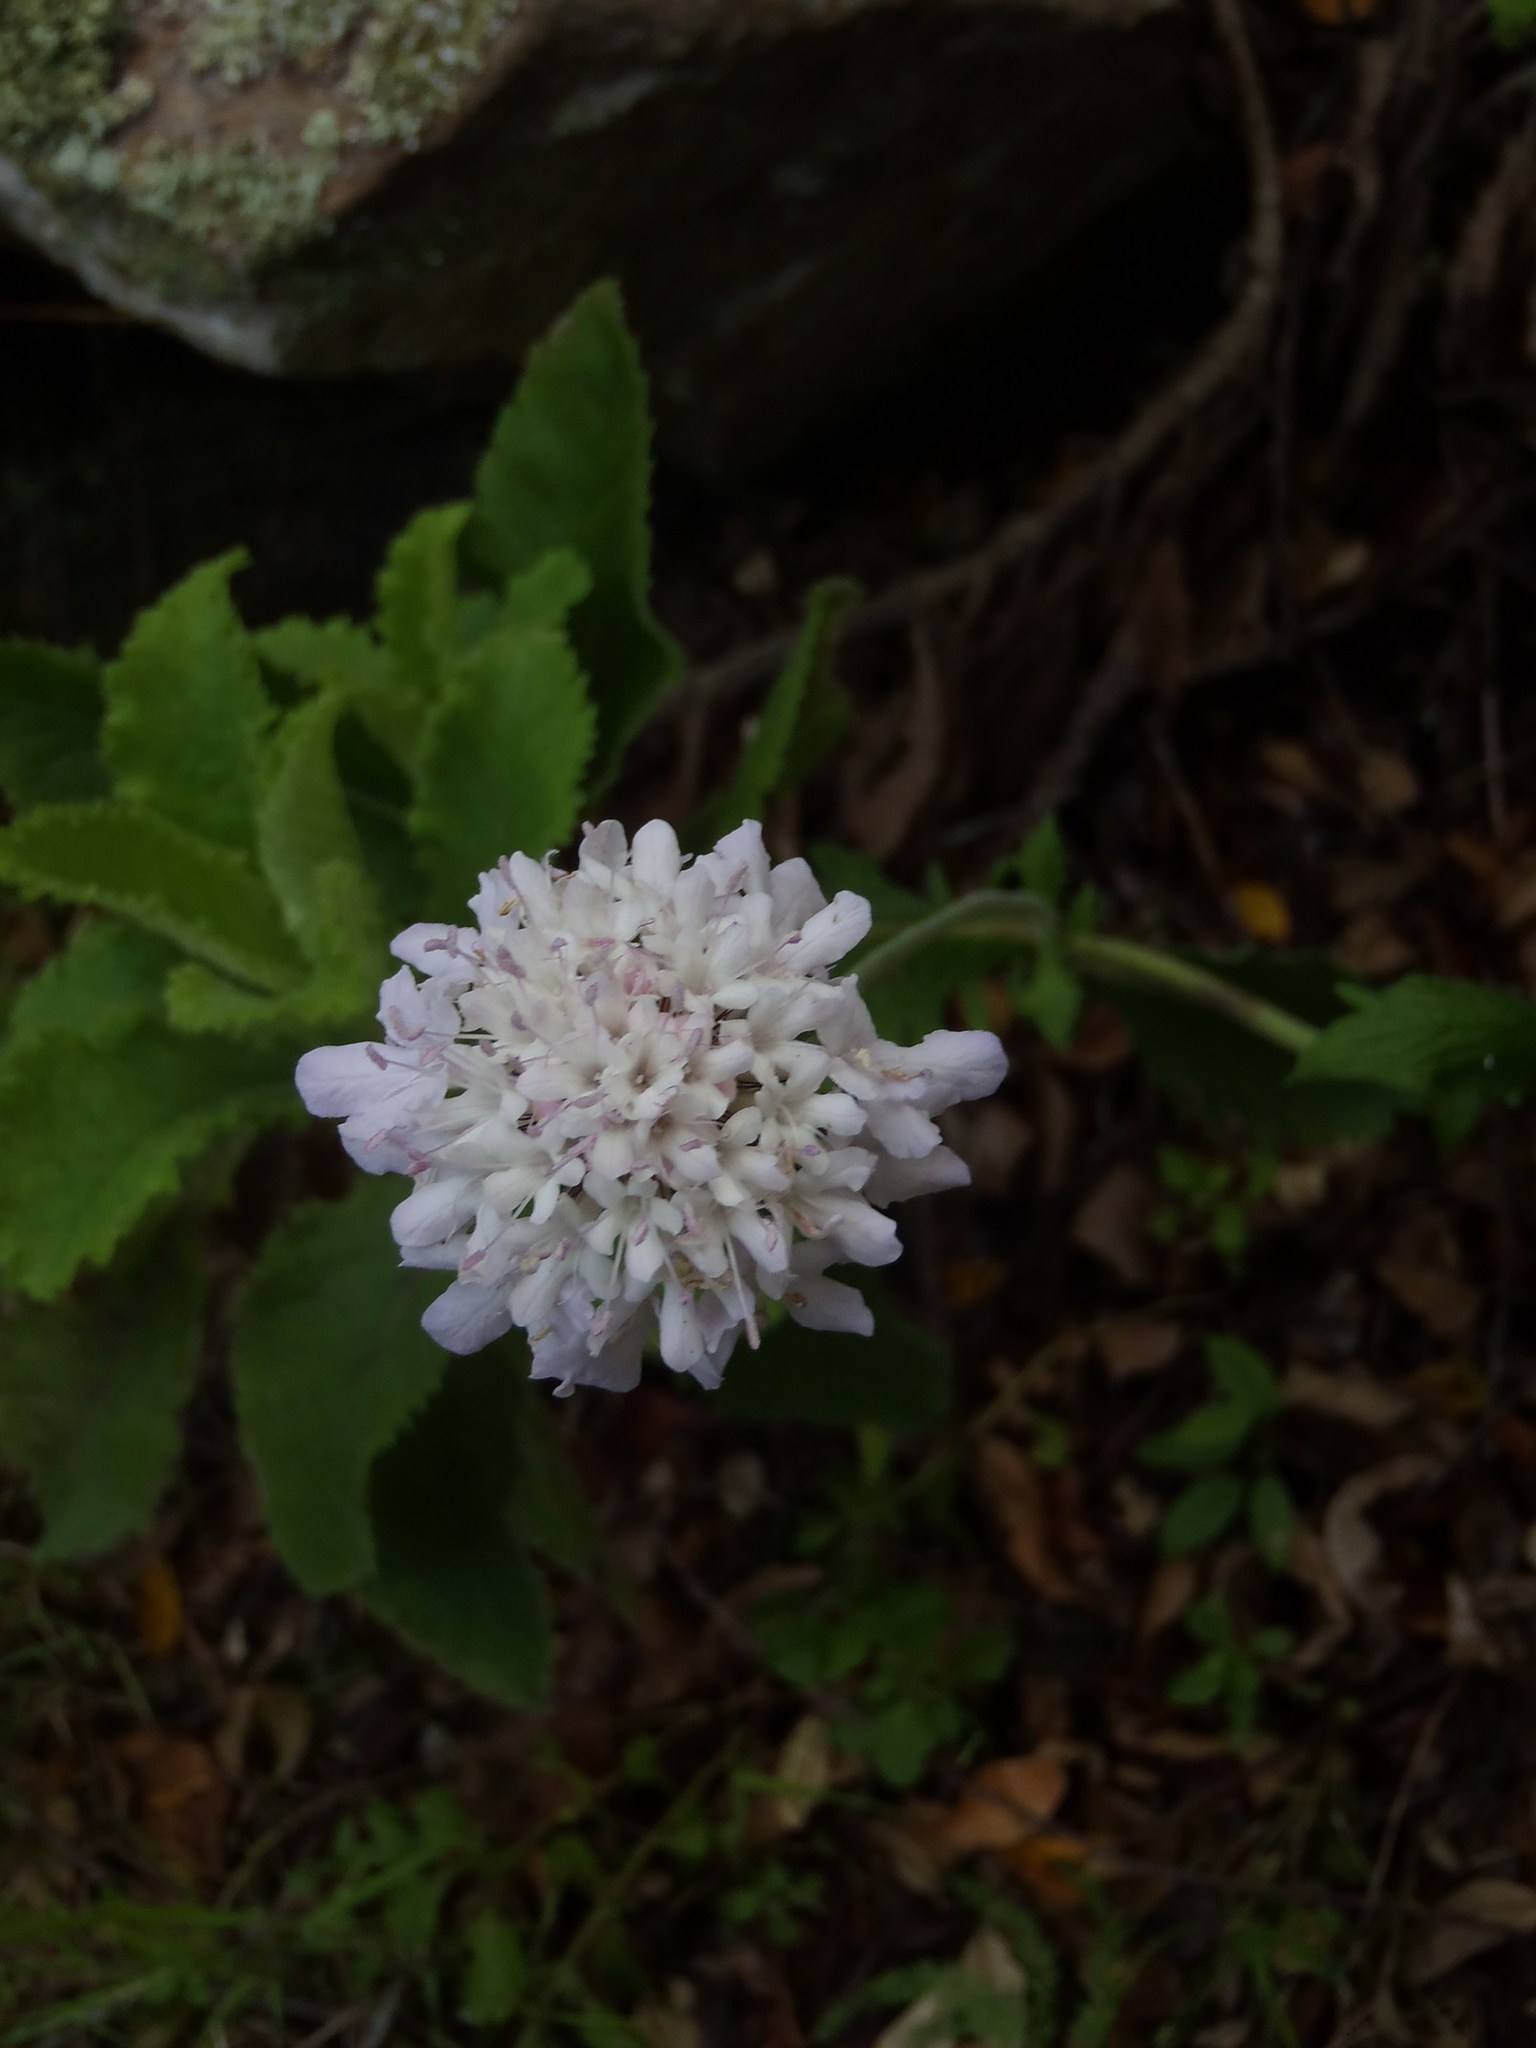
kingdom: Plantae
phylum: Tracheophyta
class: Magnoliopsida
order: Dipsacales
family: Caprifoliaceae
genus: Scabiosa
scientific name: Scabiosa africana
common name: Cape scabious
